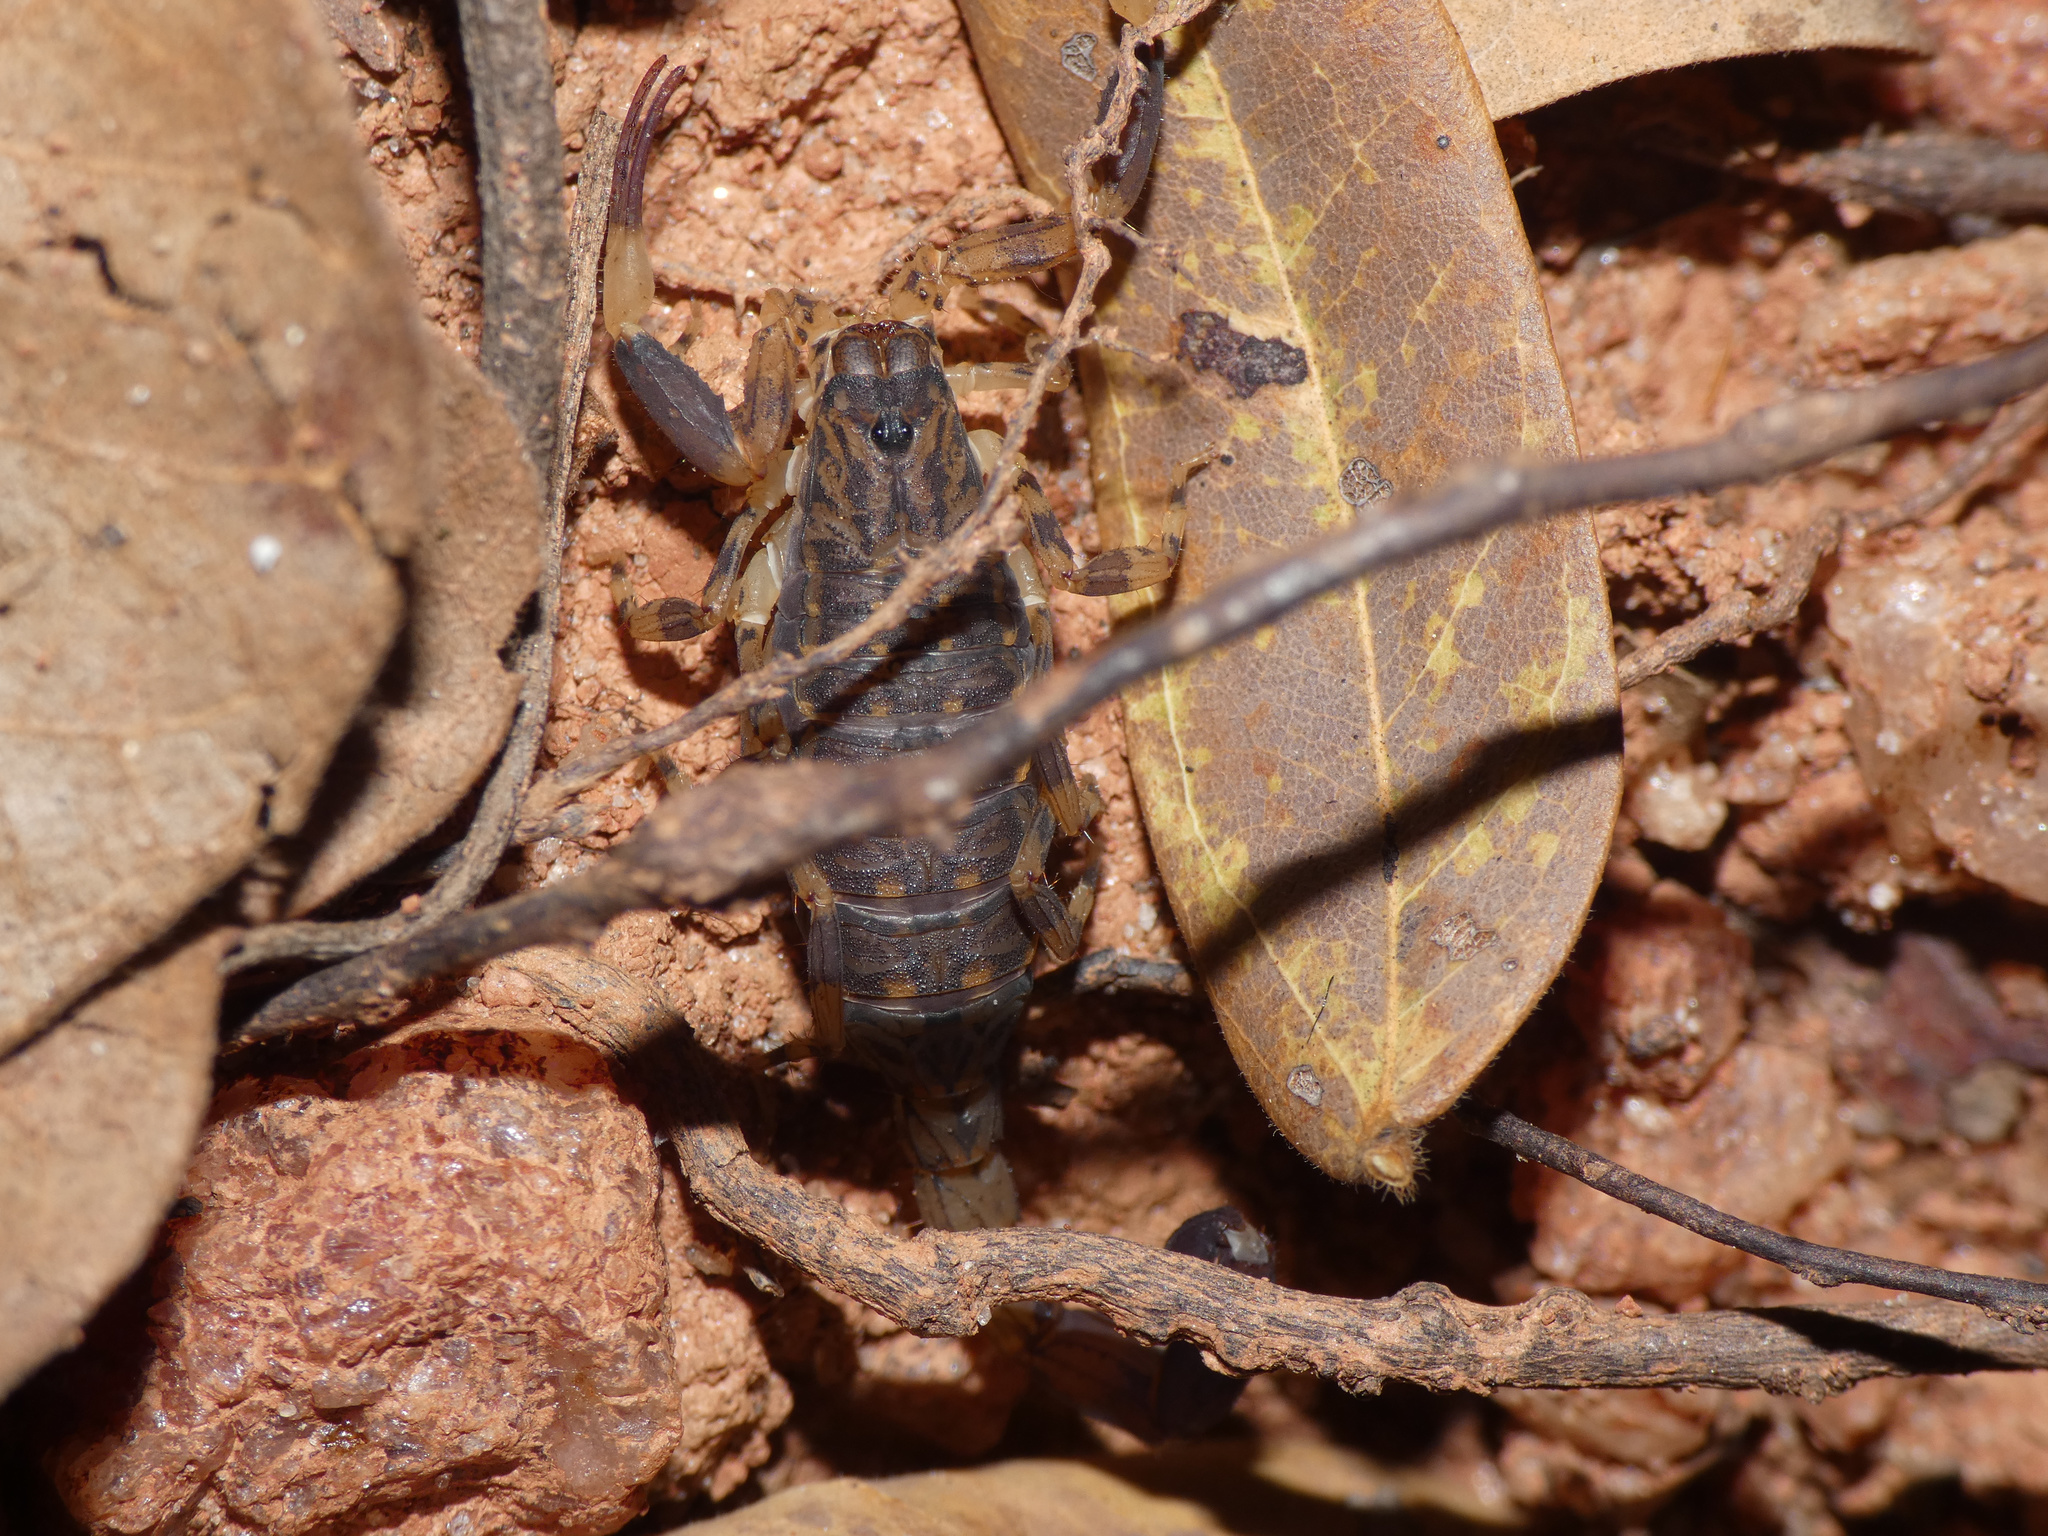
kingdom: Animalia
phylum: Arthropoda
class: Arachnida
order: Scorpiones
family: Buthidae
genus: Afrolychas
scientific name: Afrolychas burdoi
